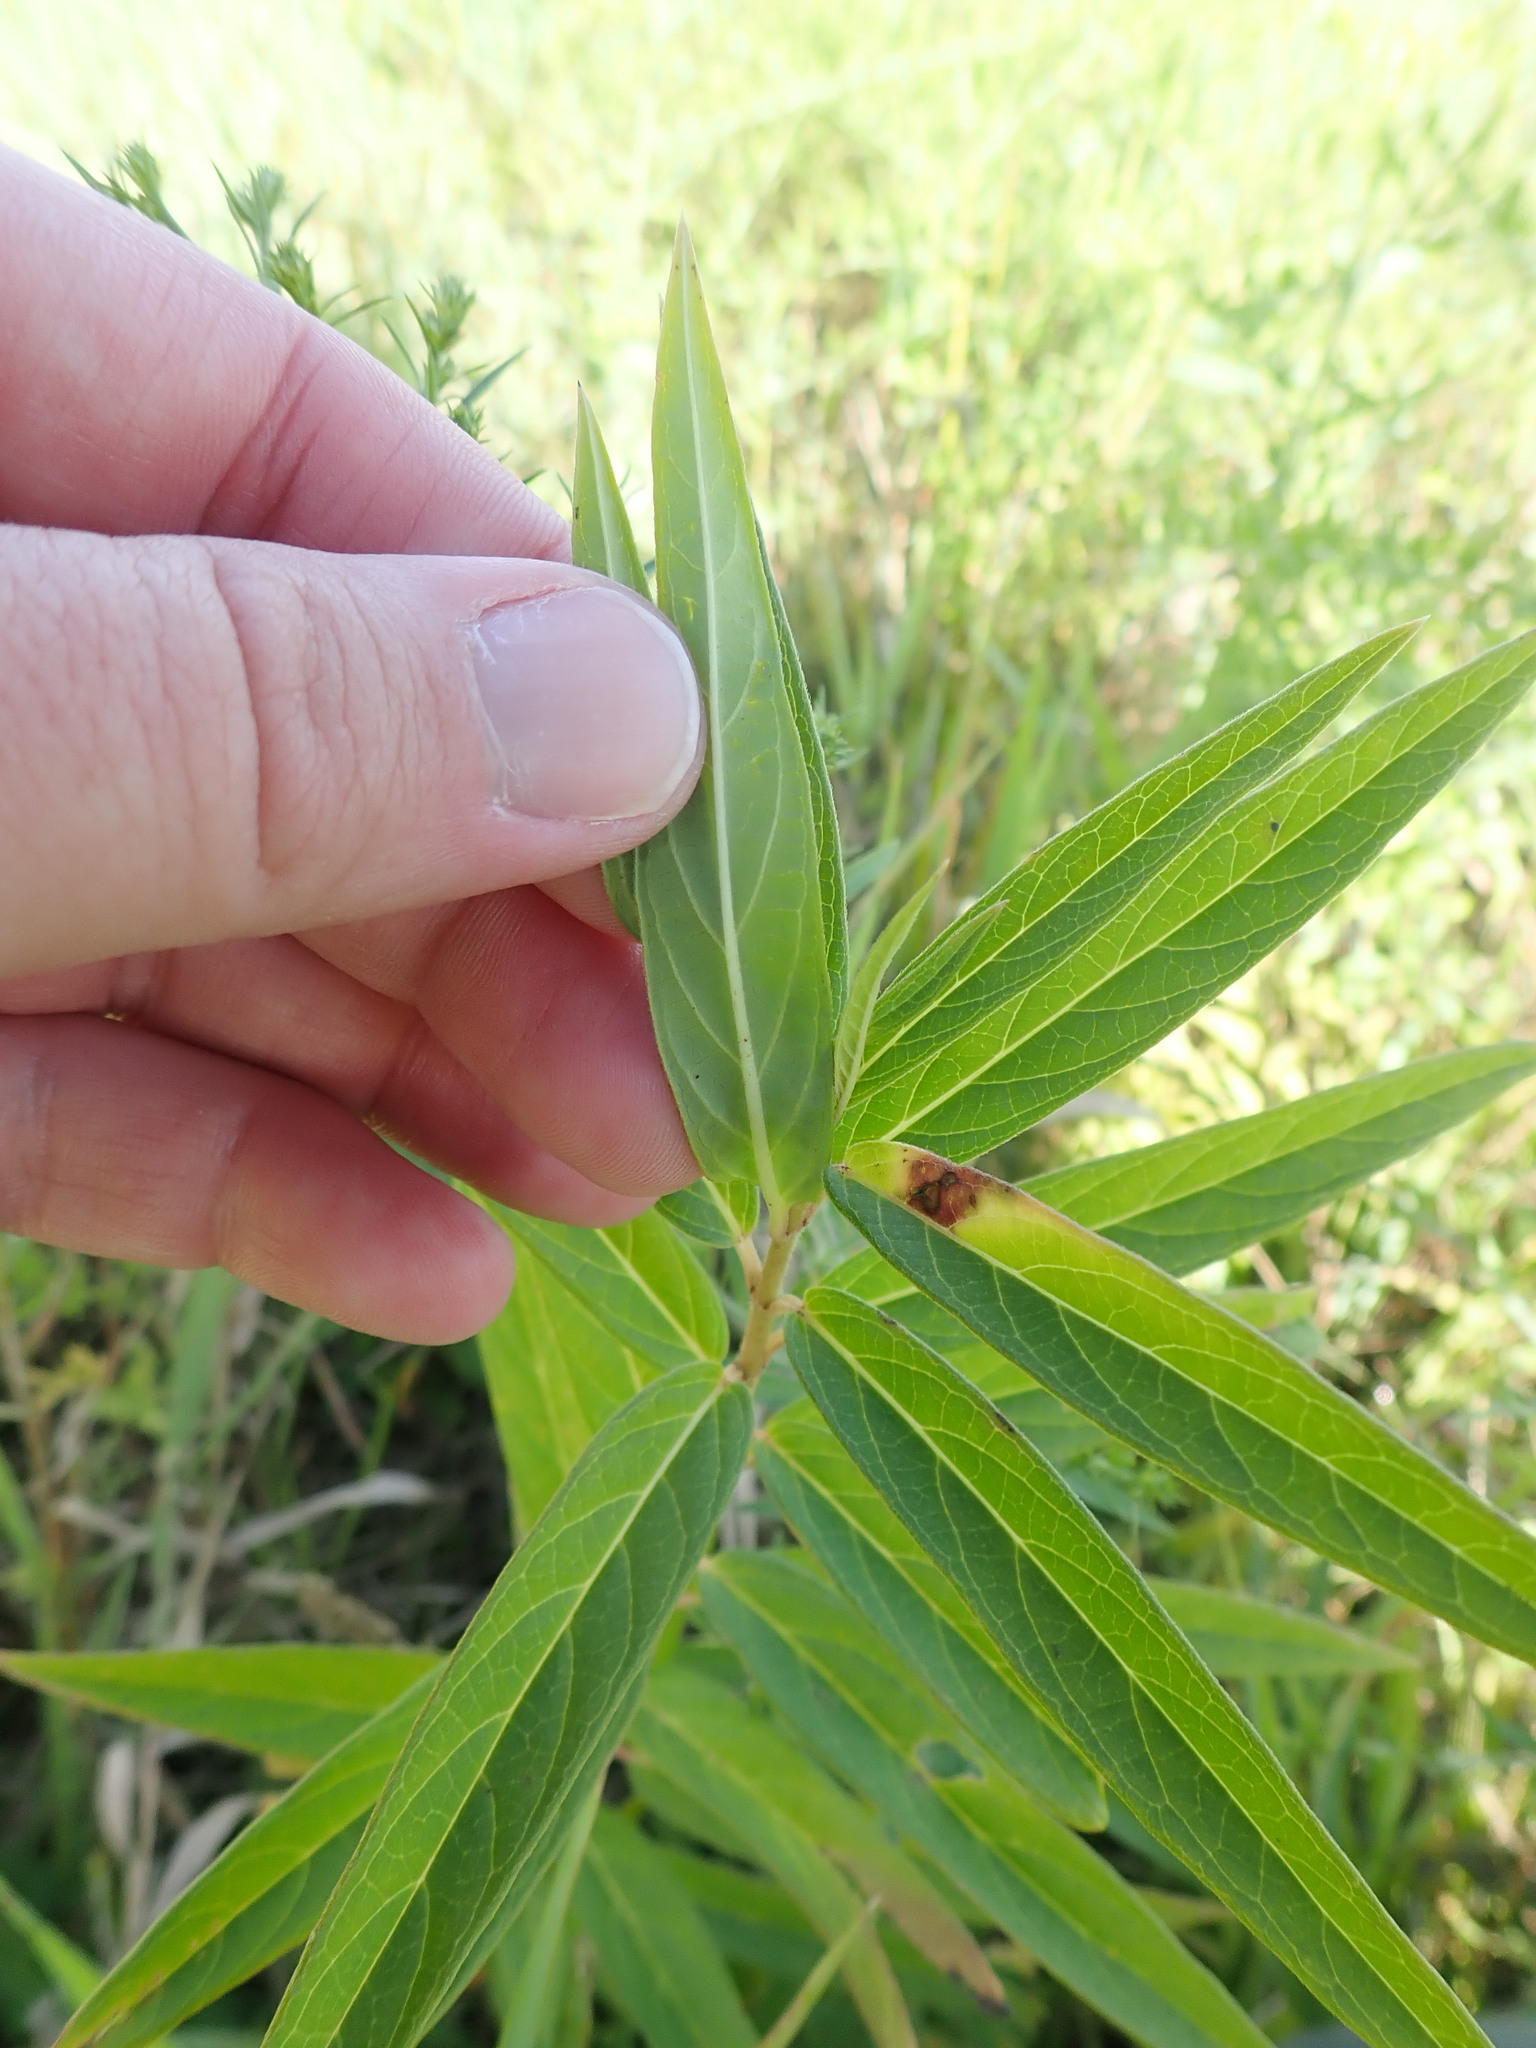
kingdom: Plantae
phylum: Tracheophyta
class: Magnoliopsida
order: Gentianales
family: Apocynaceae
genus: Asclepias
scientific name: Asclepias incarnata
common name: Swamp milkweed
